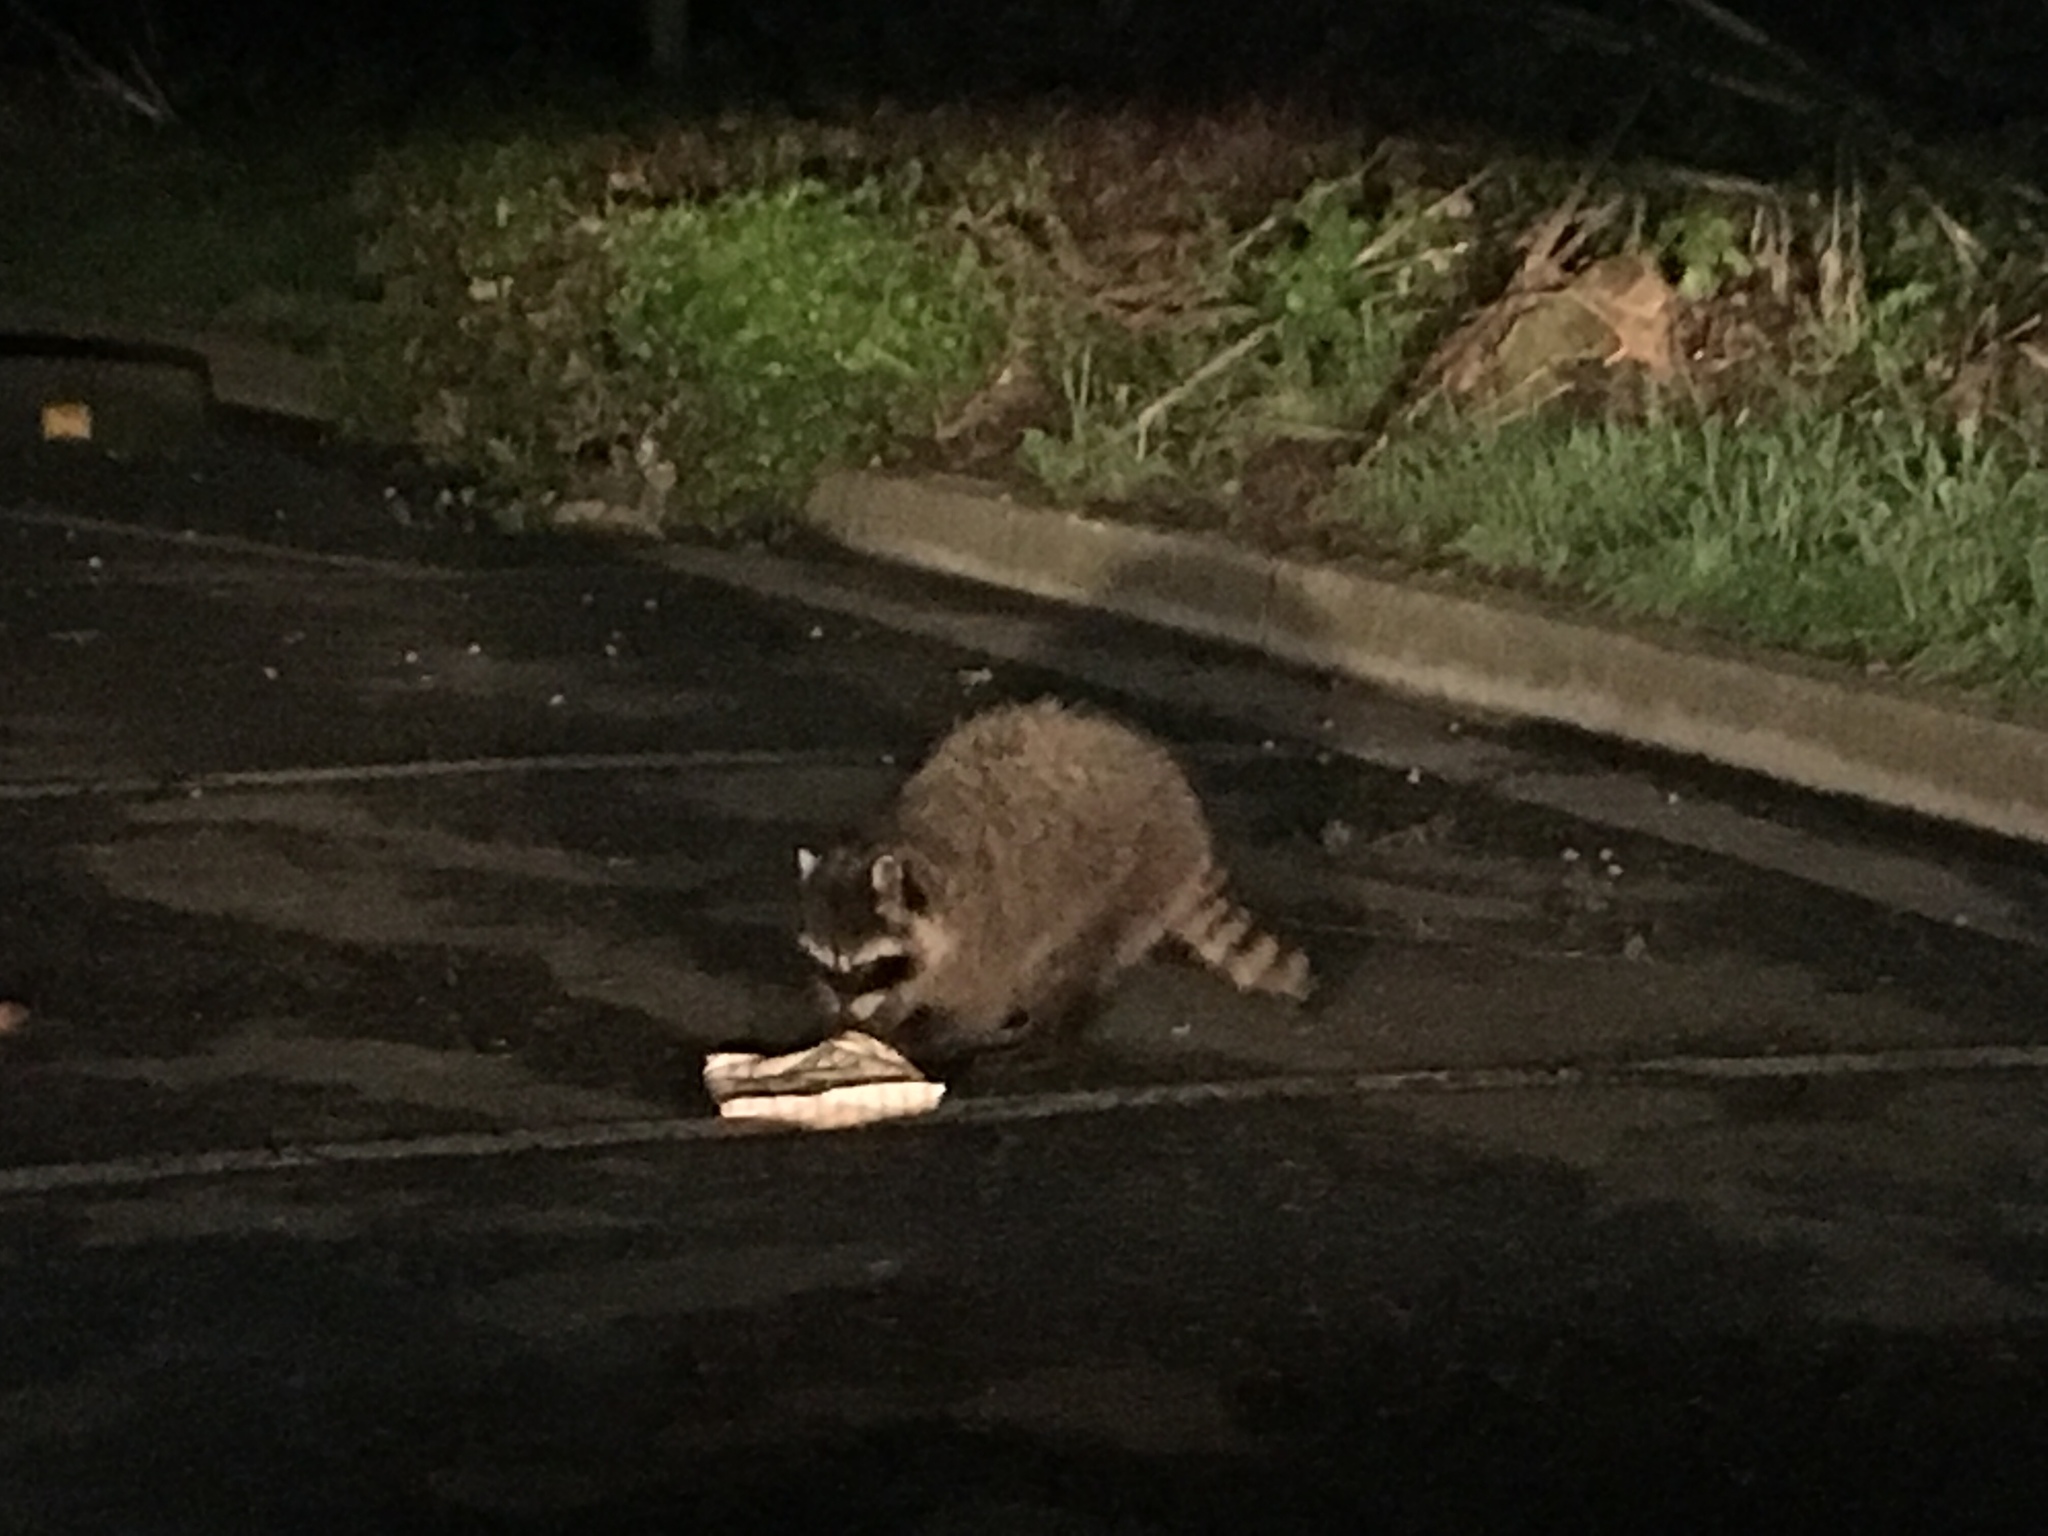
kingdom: Animalia
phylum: Chordata
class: Mammalia
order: Carnivora
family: Procyonidae
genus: Procyon
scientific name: Procyon lotor
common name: Raccoon
